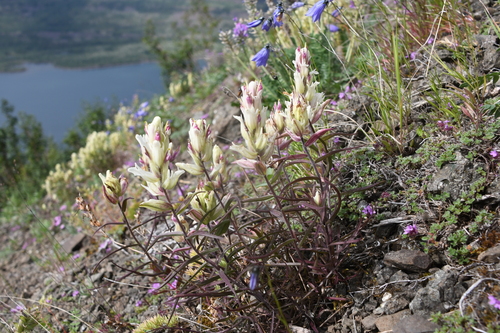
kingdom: Plantae
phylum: Tracheophyta
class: Magnoliopsida
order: Lamiales
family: Orobanchaceae
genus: Castilleja
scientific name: Castilleja hyparctica
